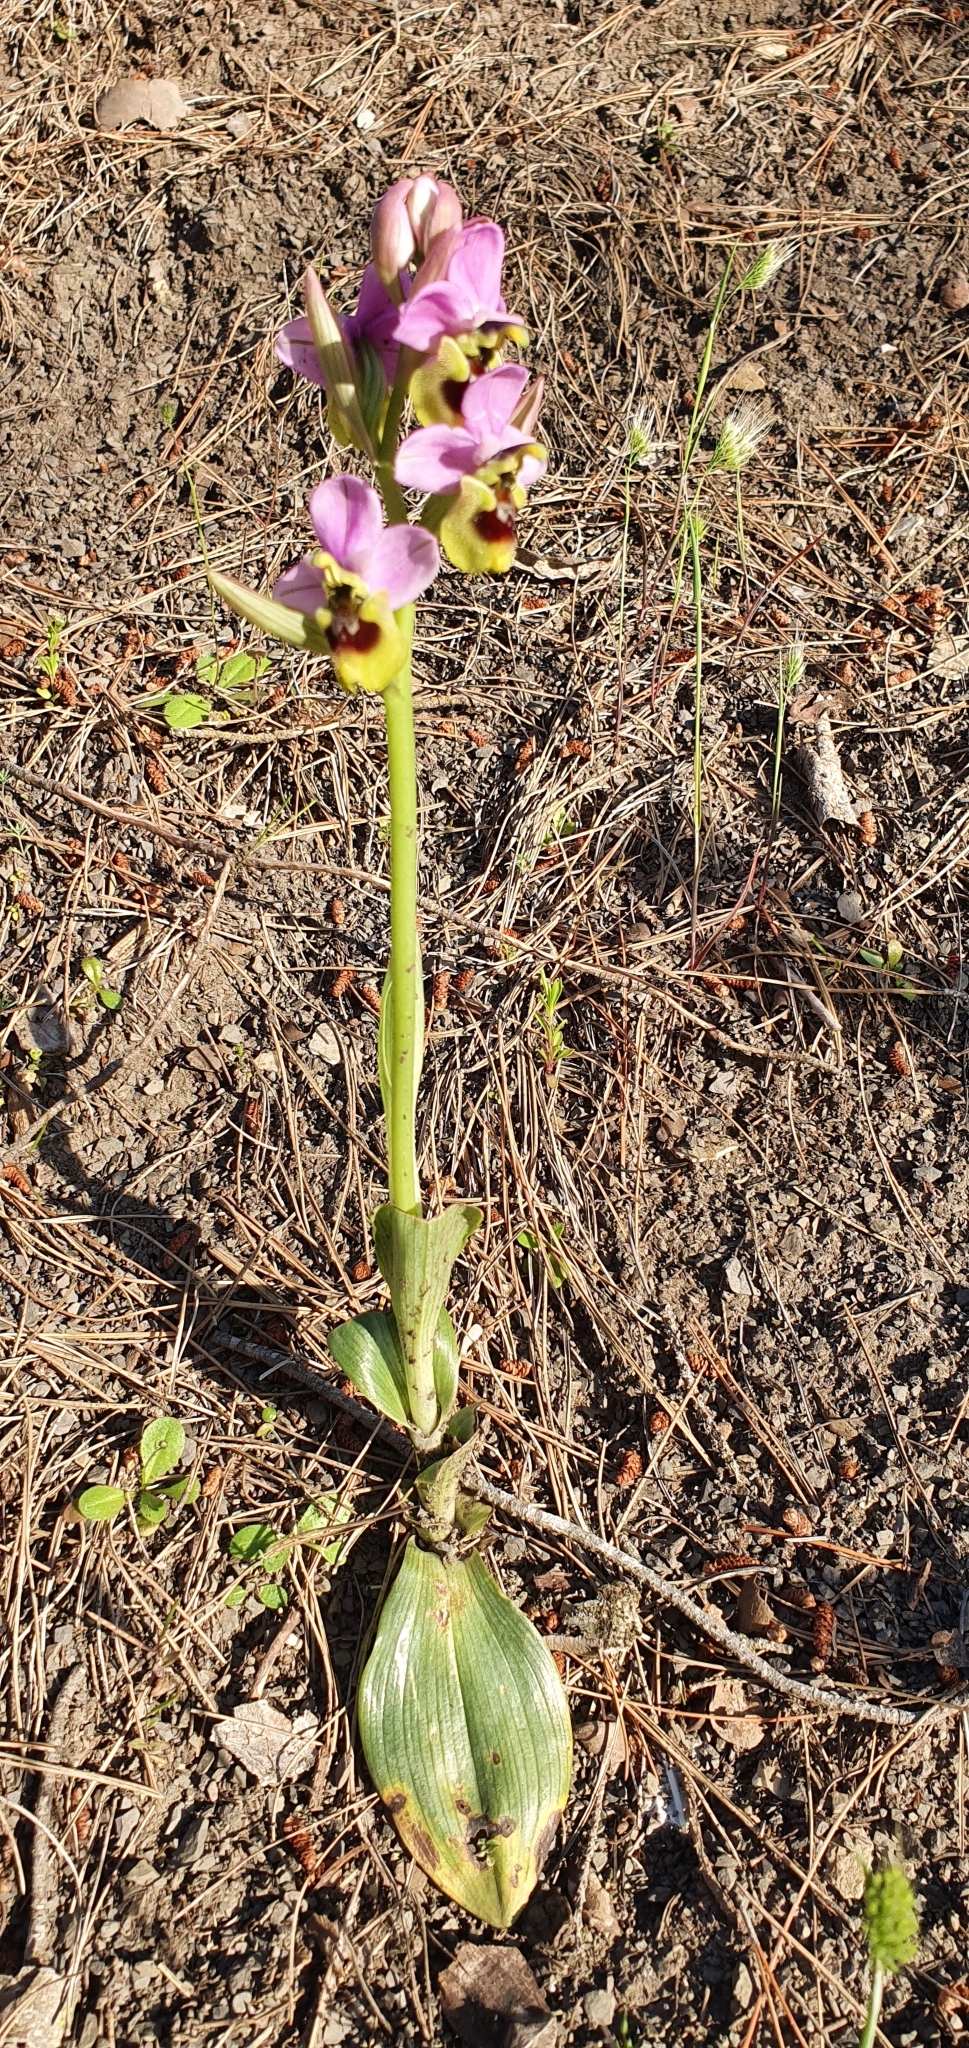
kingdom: Plantae
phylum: Tracheophyta
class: Liliopsida
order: Asparagales
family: Orchidaceae
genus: Ophrys
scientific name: Ophrys tenthredinifera
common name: Sawfly orchid
